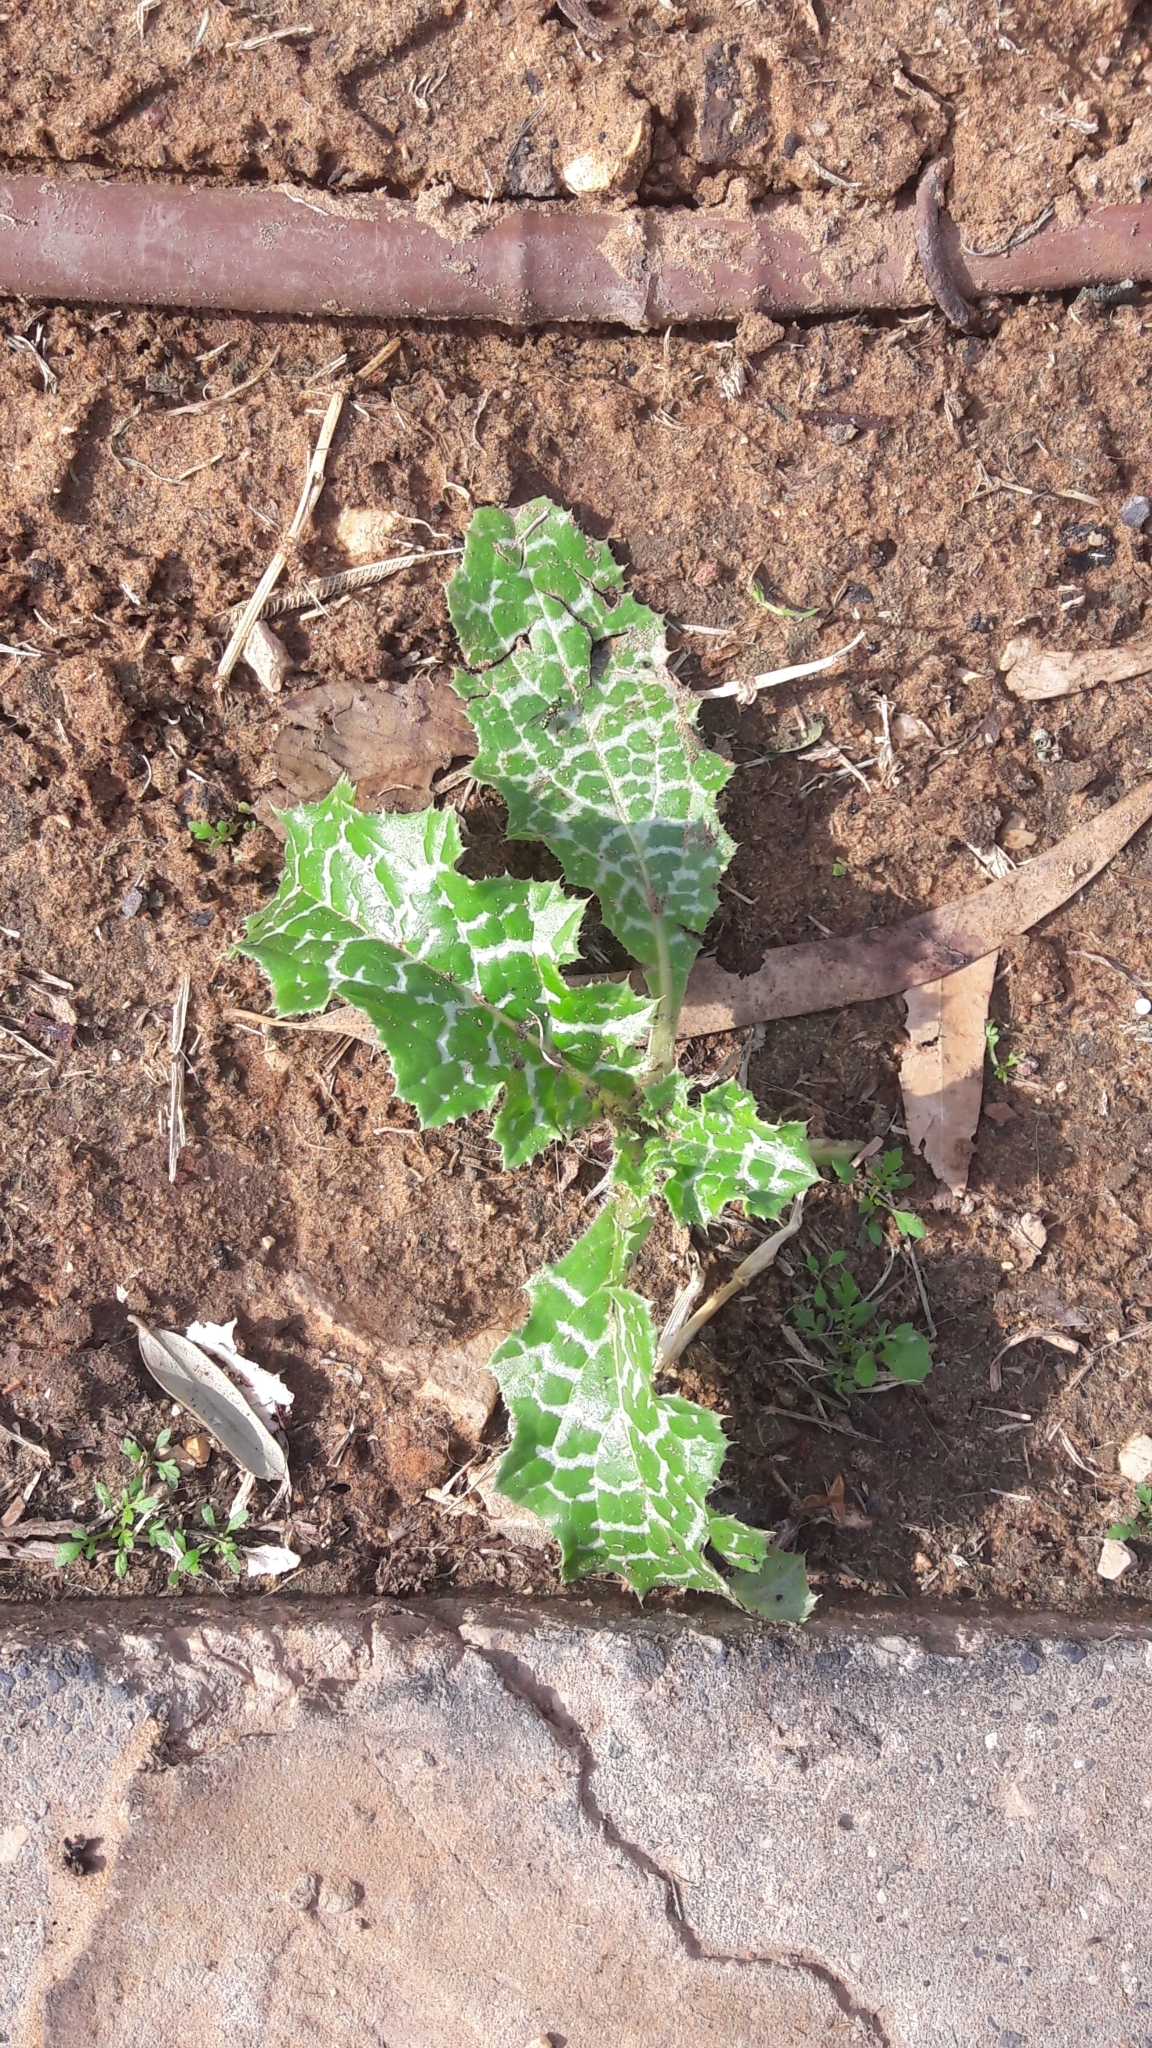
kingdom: Plantae
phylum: Tracheophyta
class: Magnoliopsida
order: Asterales
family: Asteraceae
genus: Silybum
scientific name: Silybum marianum
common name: Milk thistle
